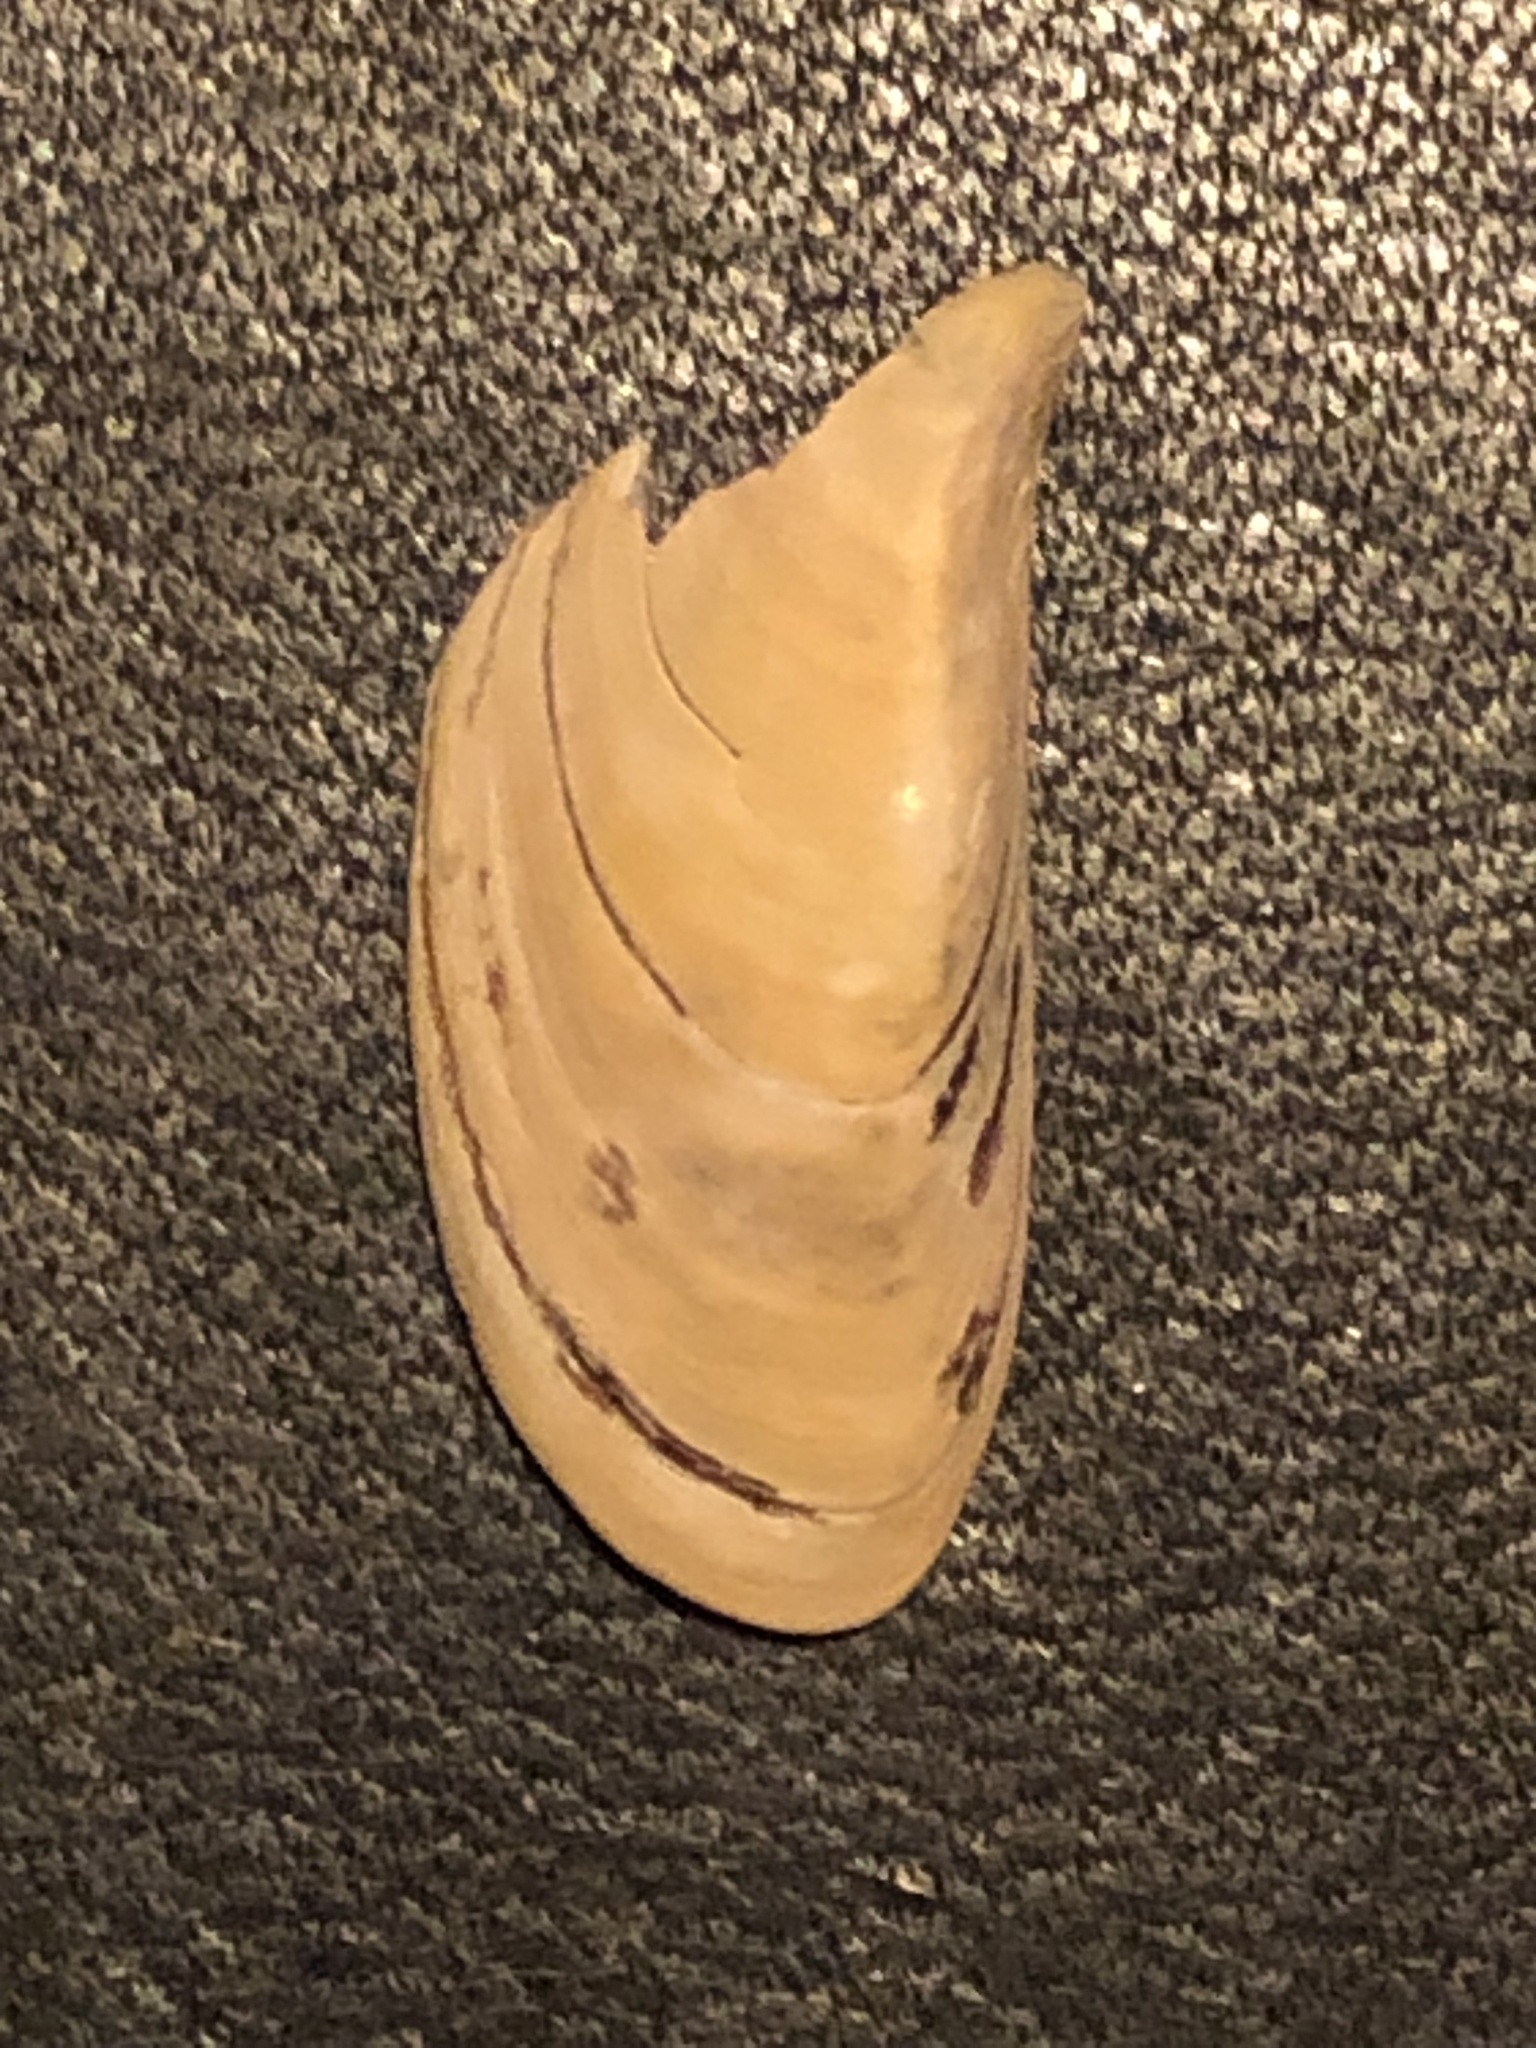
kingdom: Animalia
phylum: Mollusca
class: Bivalvia
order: Myida
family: Dreissenidae
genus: Dreissena
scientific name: Dreissena polymorpha
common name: Zebra mussel
